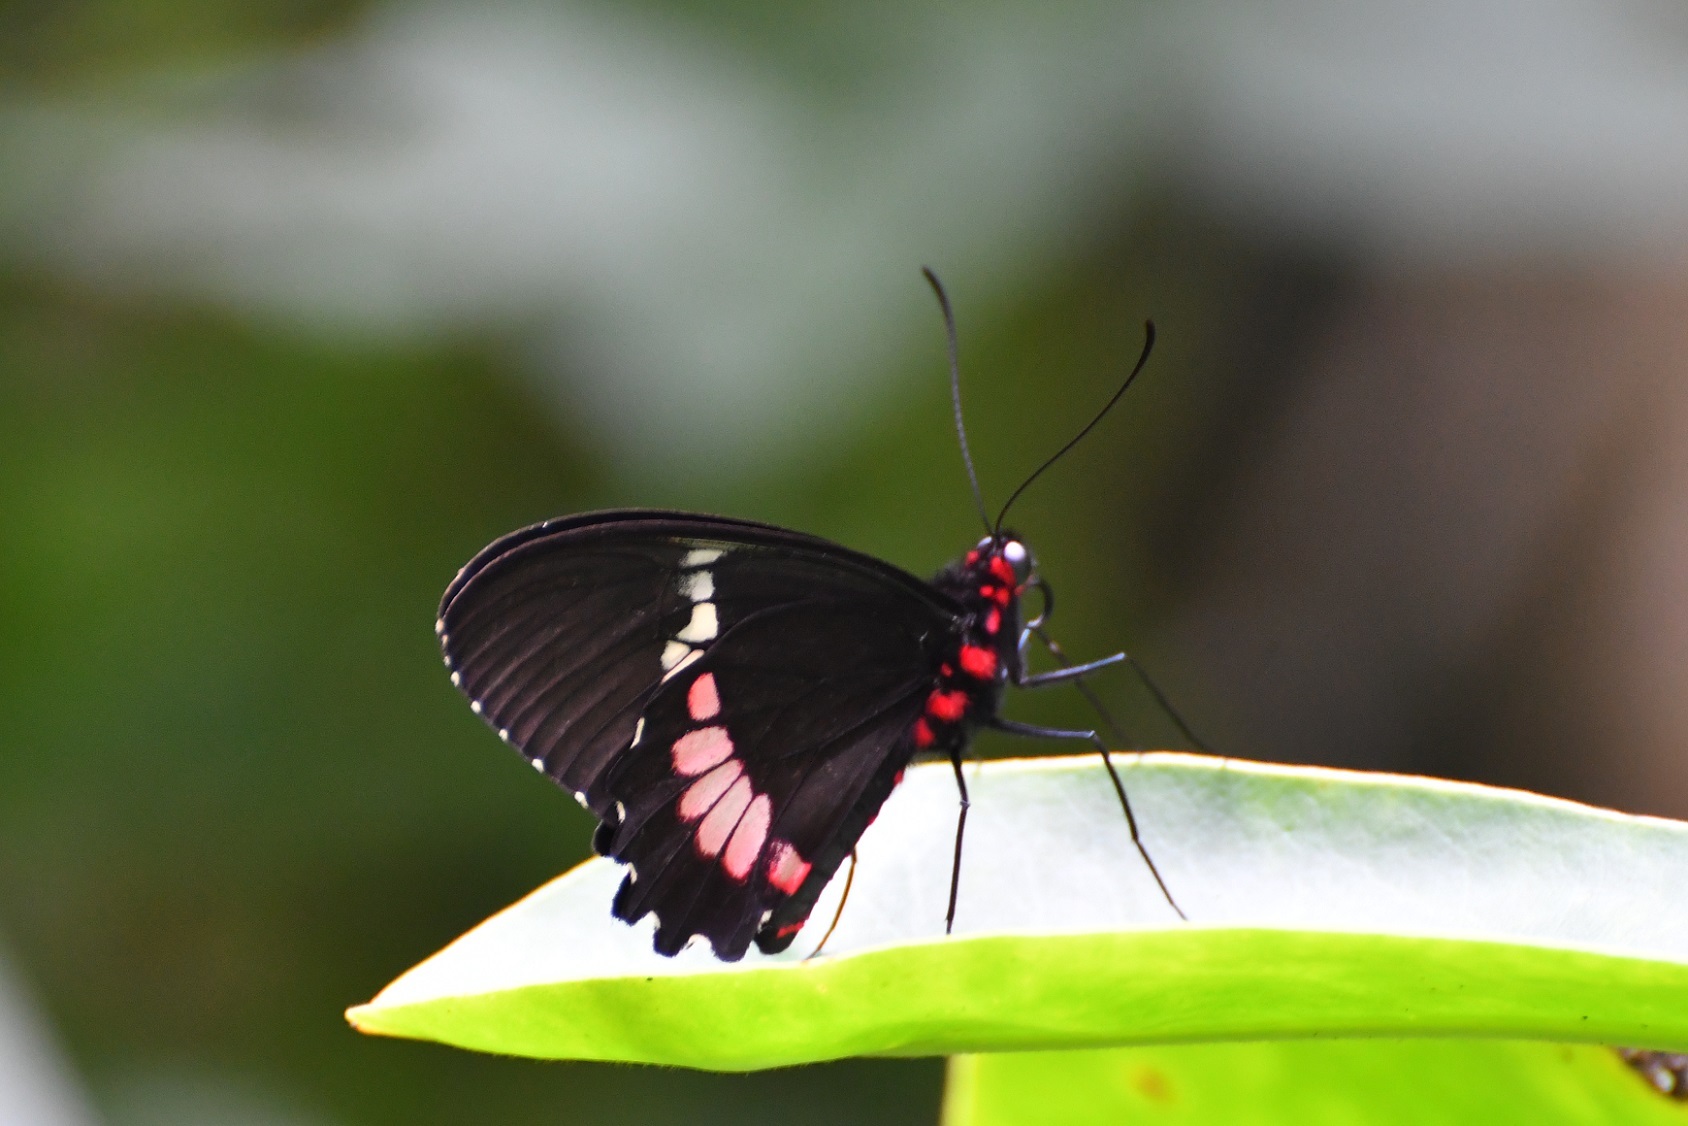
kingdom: Animalia
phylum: Arthropoda
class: Insecta
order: Lepidoptera
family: Papilionidae
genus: Parides
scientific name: Parides panares
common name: Wedge-spotted cattleheart
